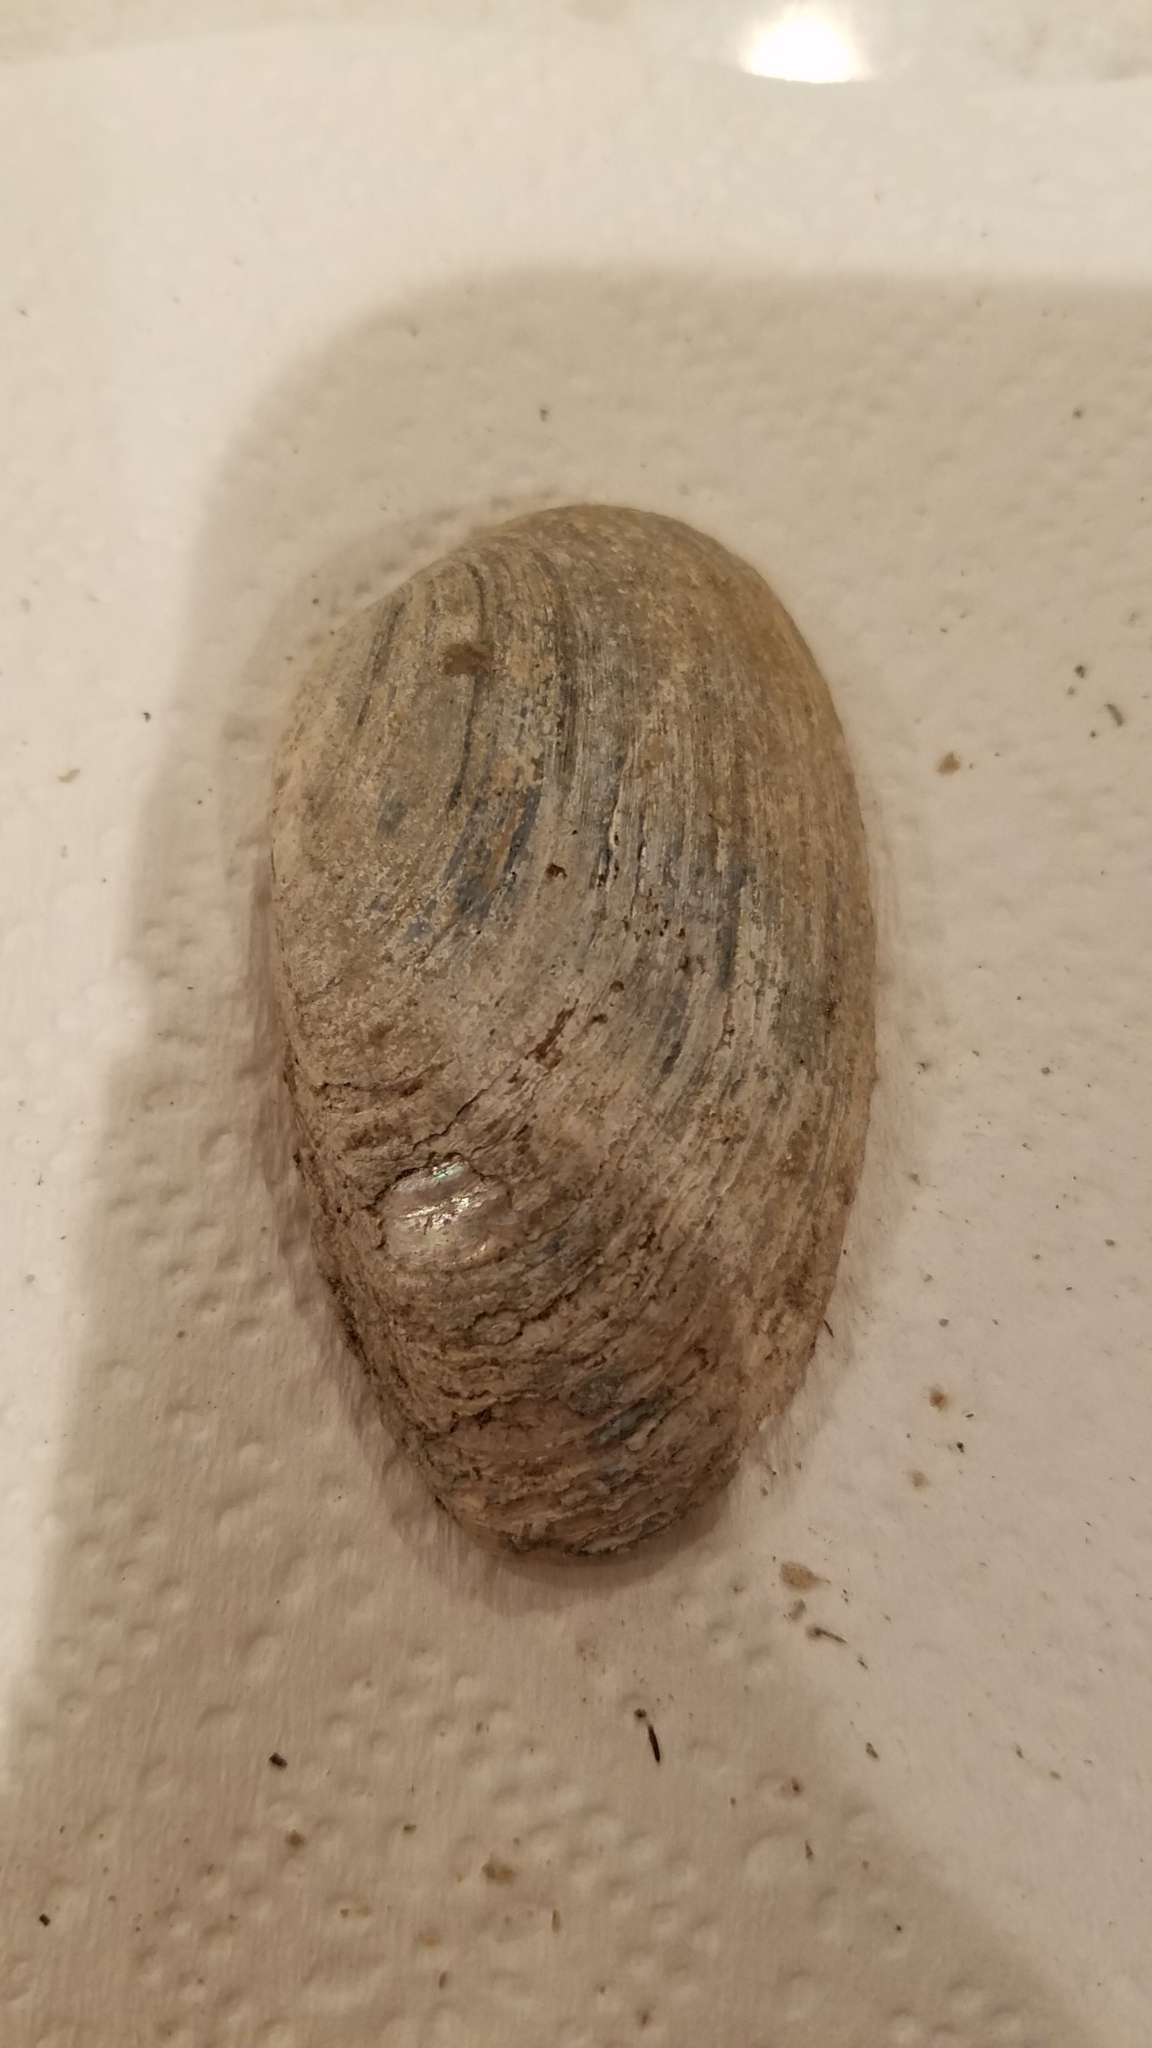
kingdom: Animalia
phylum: Mollusca
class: Bivalvia
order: Unionida
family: Unionidae
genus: Venustaconcha
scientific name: Venustaconcha ellipsiformis
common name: Ellipse
